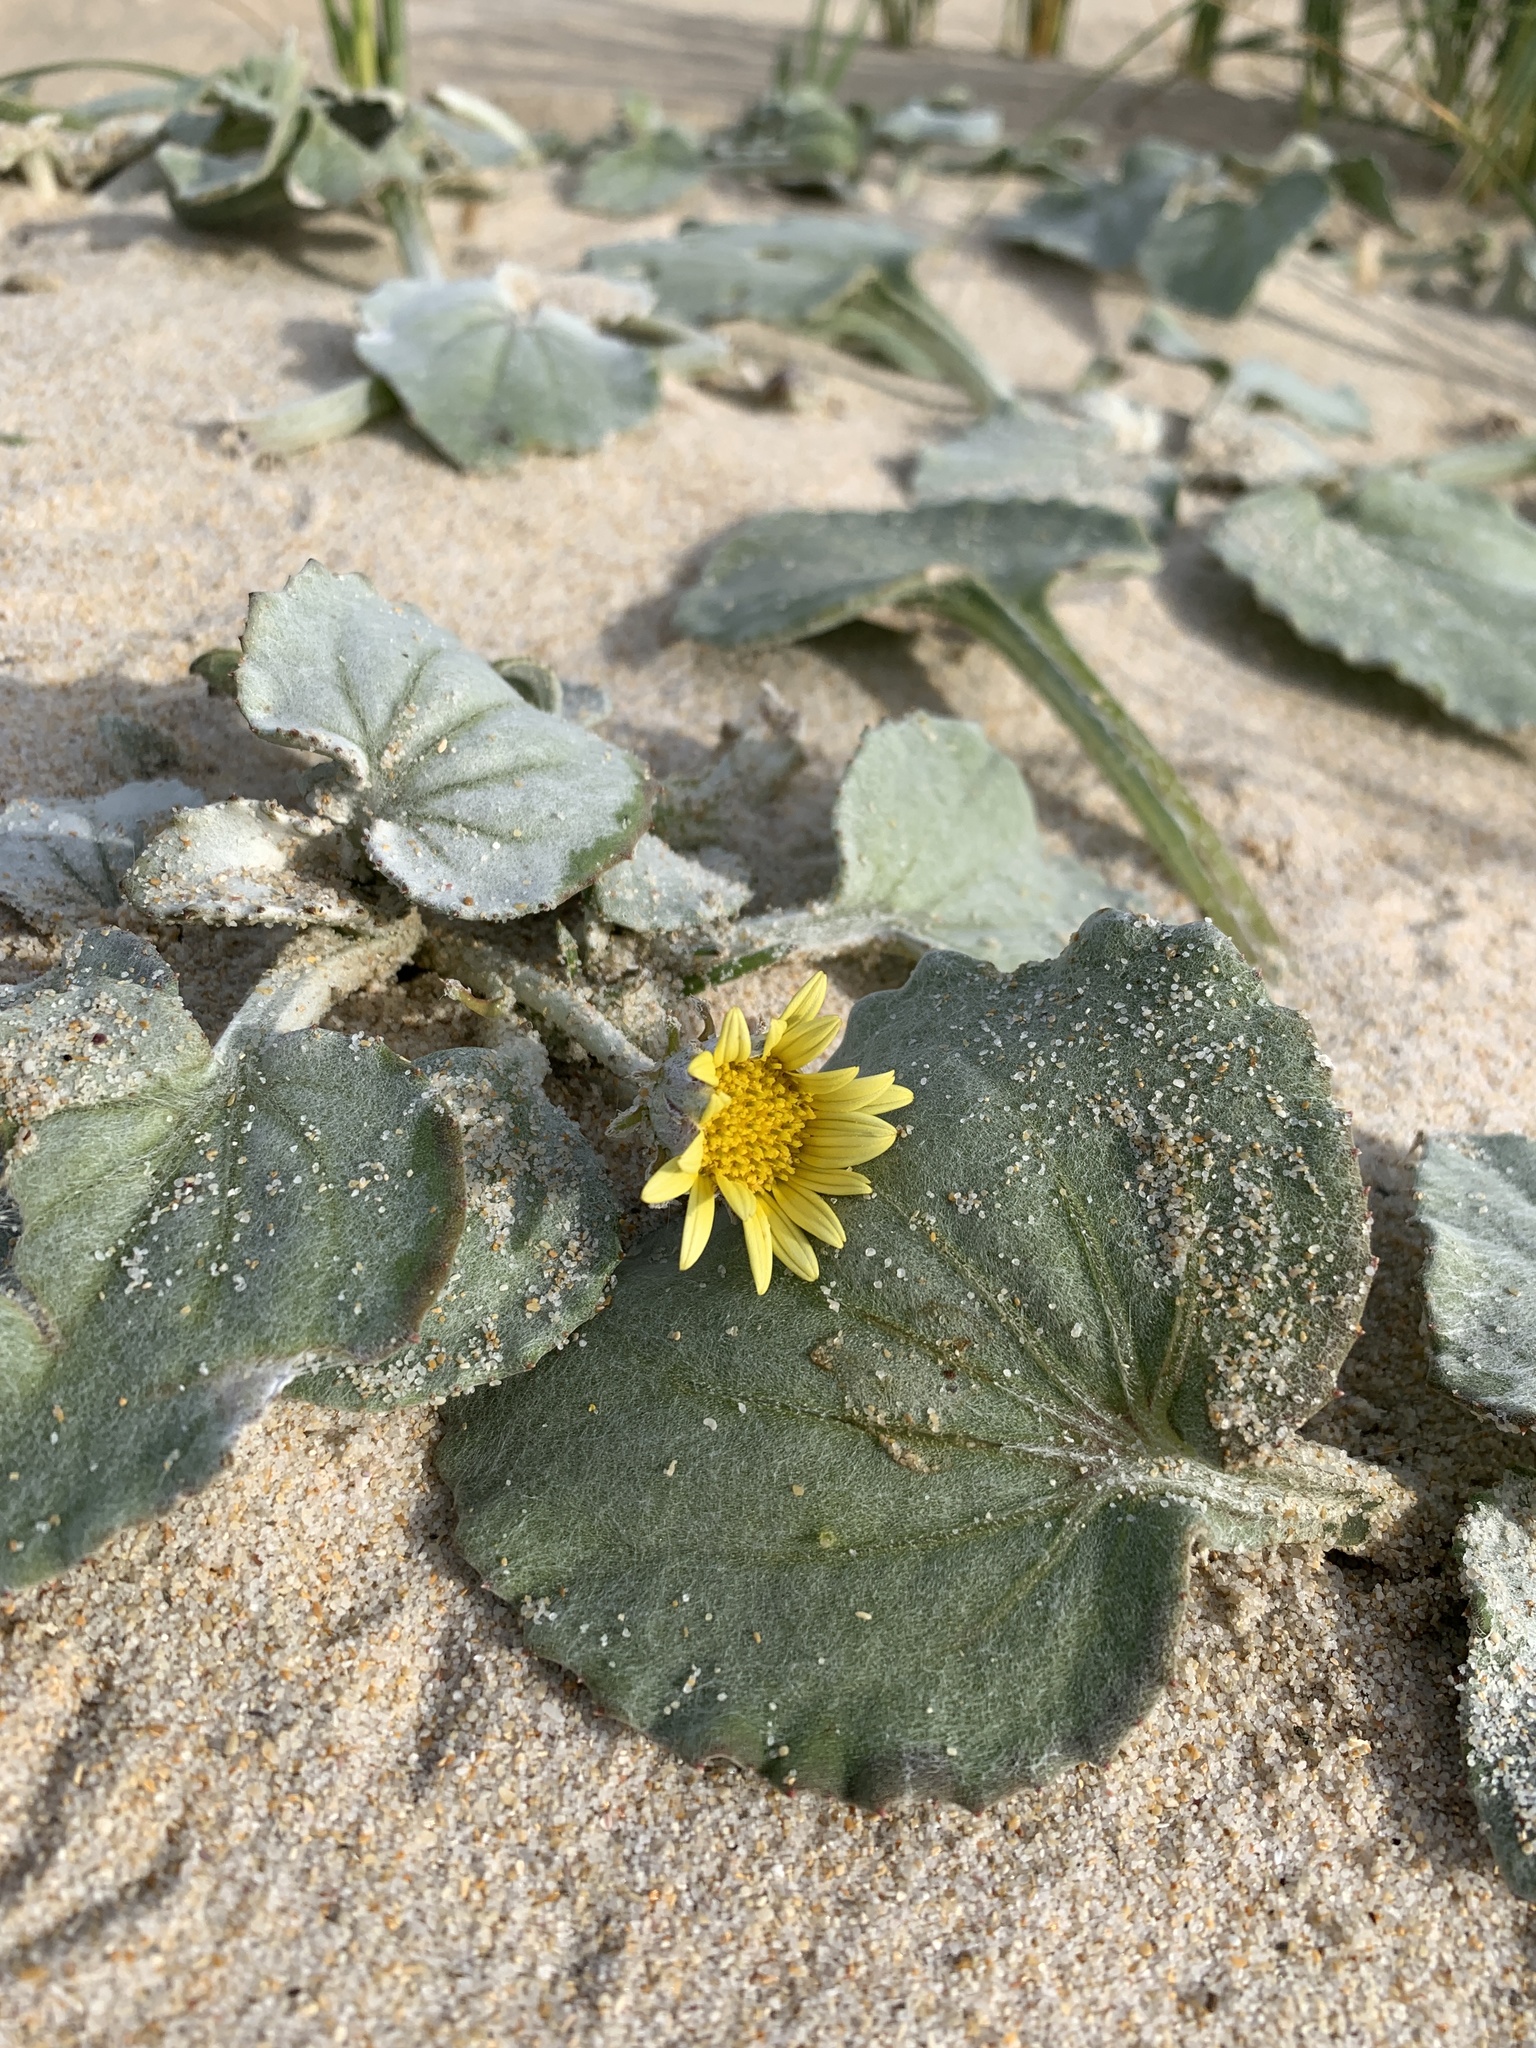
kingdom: Plantae
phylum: Tracheophyta
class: Magnoliopsida
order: Asterales
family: Asteraceae
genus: Arctotheca
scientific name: Arctotheca populifolia
